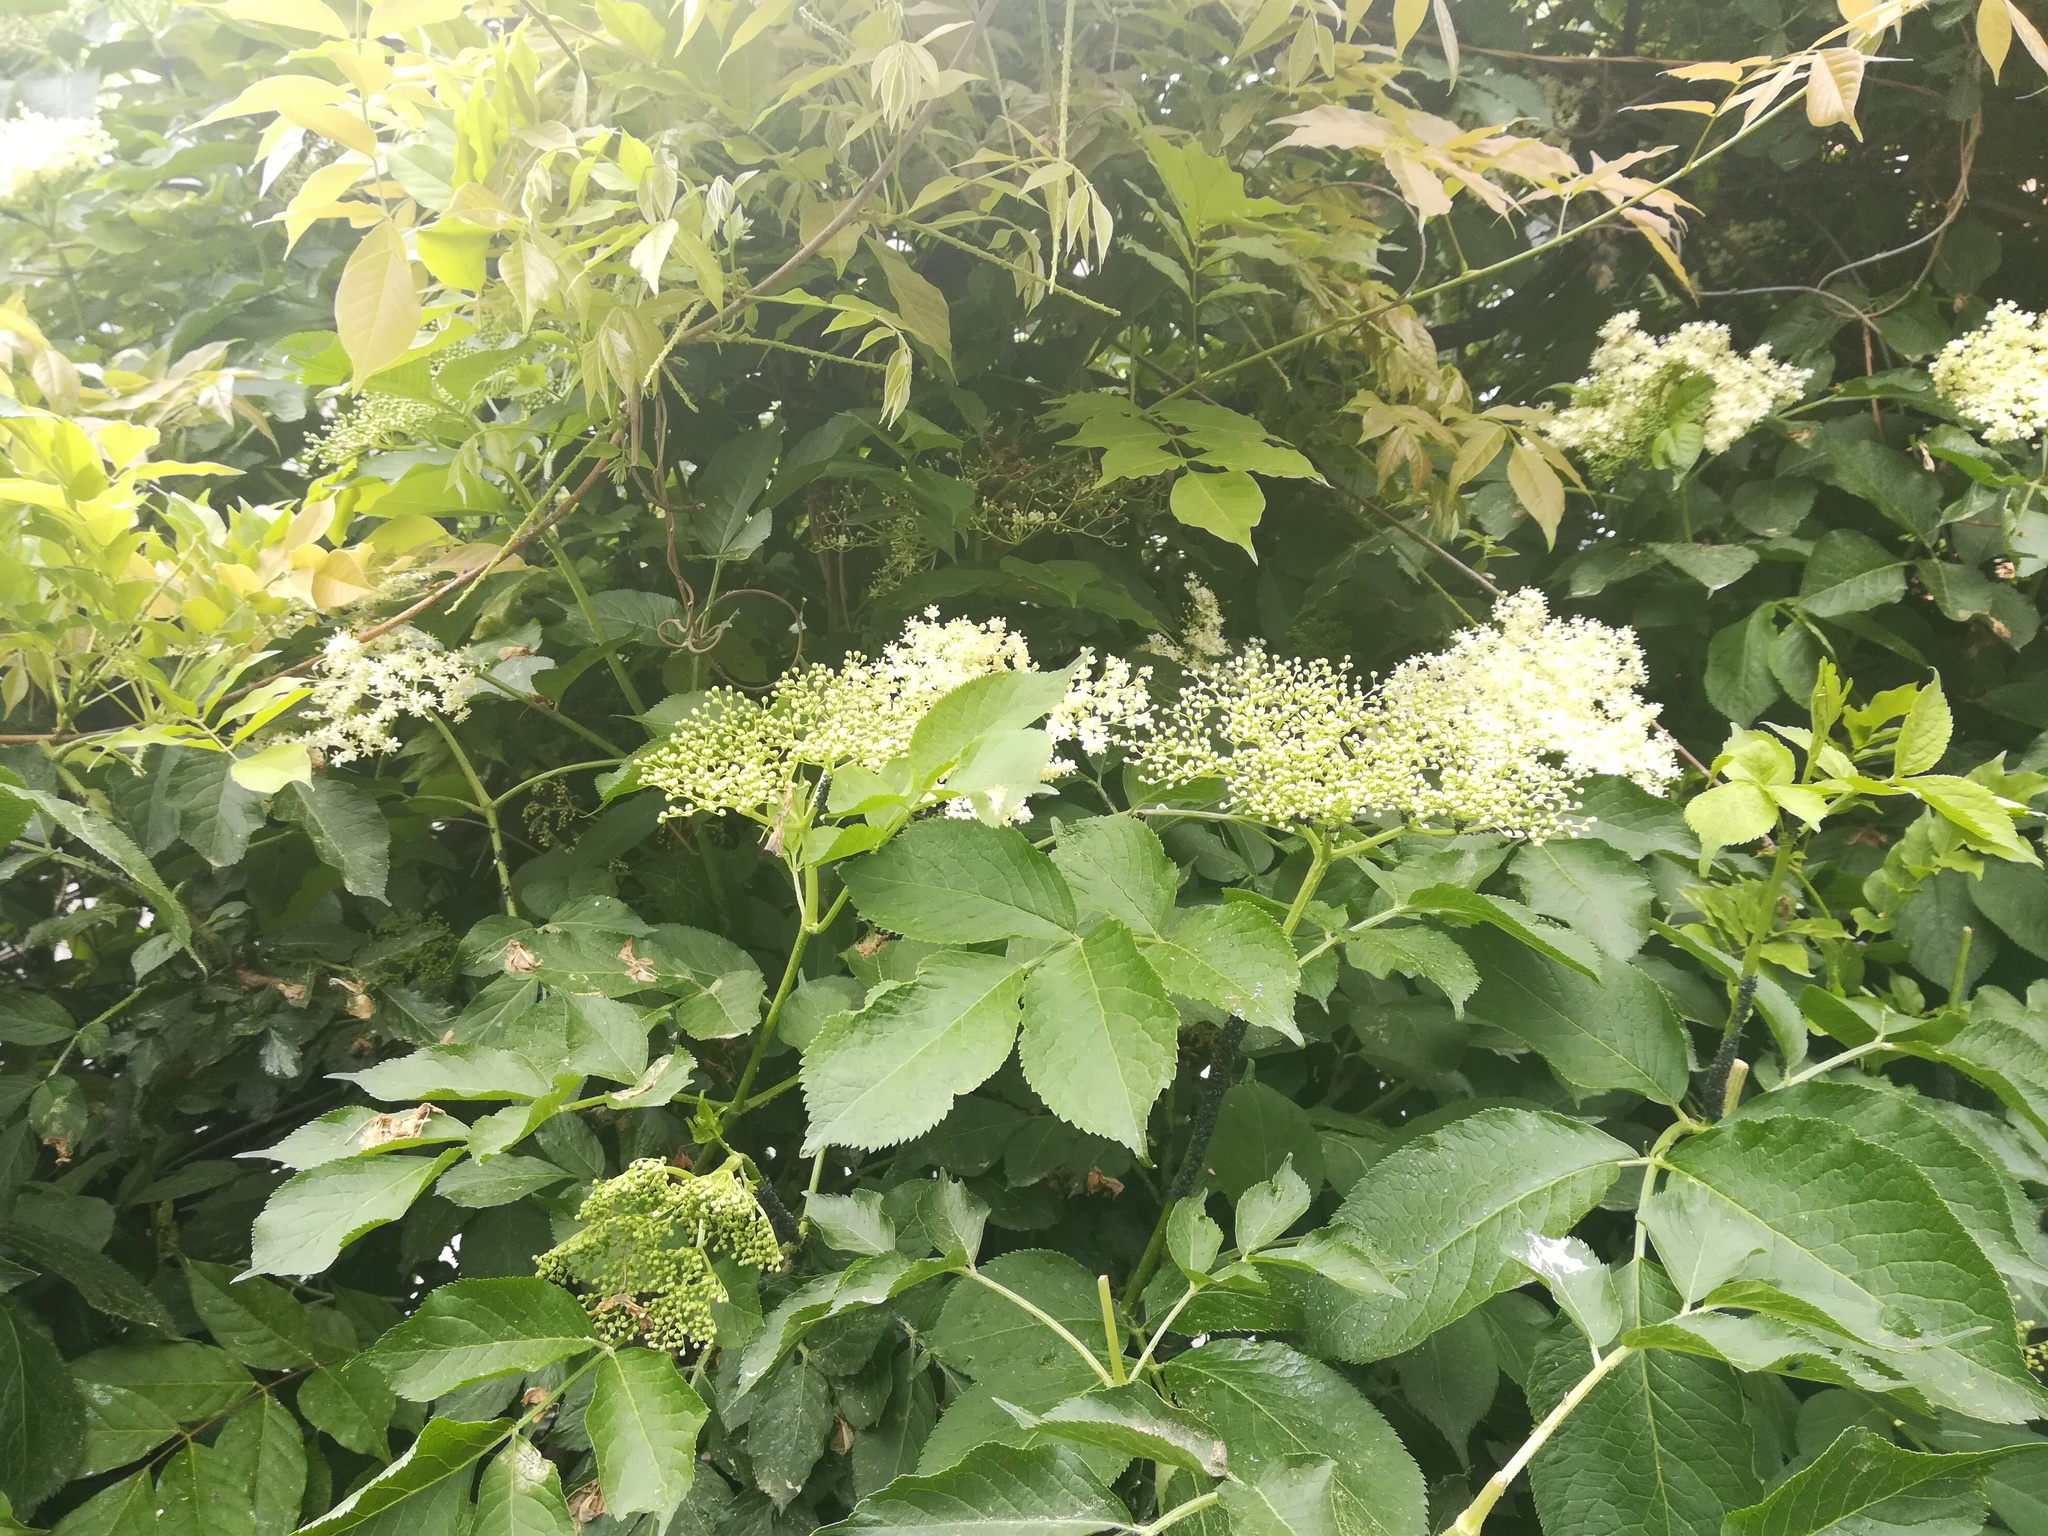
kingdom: Plantae
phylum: Tracheophyta
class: Magnoliopsida
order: Dipsacales
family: Viburnaceae
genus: Sambucus
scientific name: Sambucus nigra
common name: Elder
